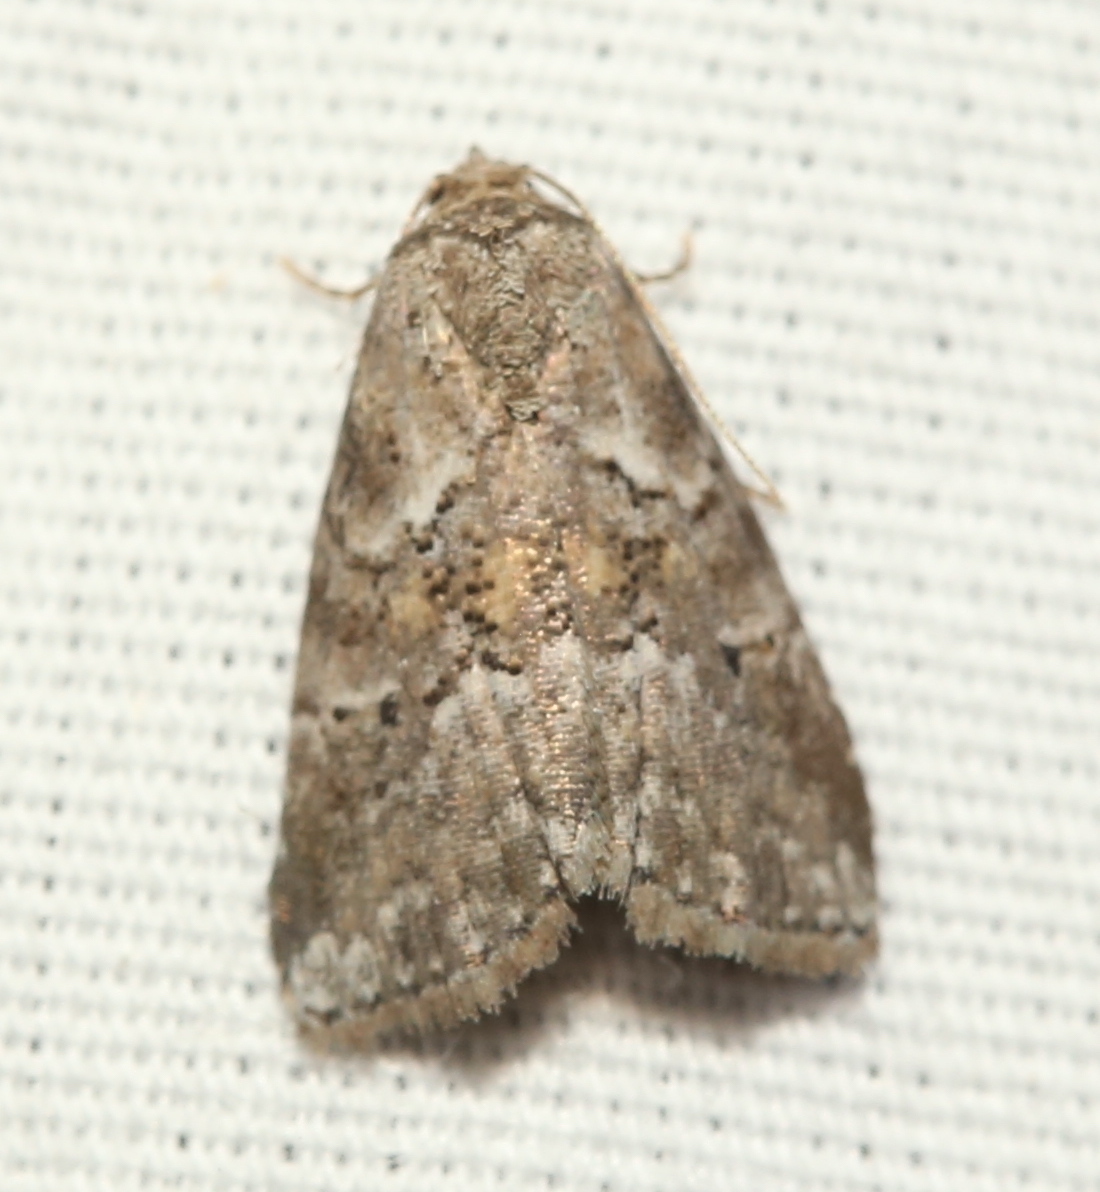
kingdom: Animalia
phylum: Arthropoda
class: Insecta
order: Lepidoptera
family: Erebidae
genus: Hyperstrotia
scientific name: Hyperstrotia nana
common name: White-lined graylet
